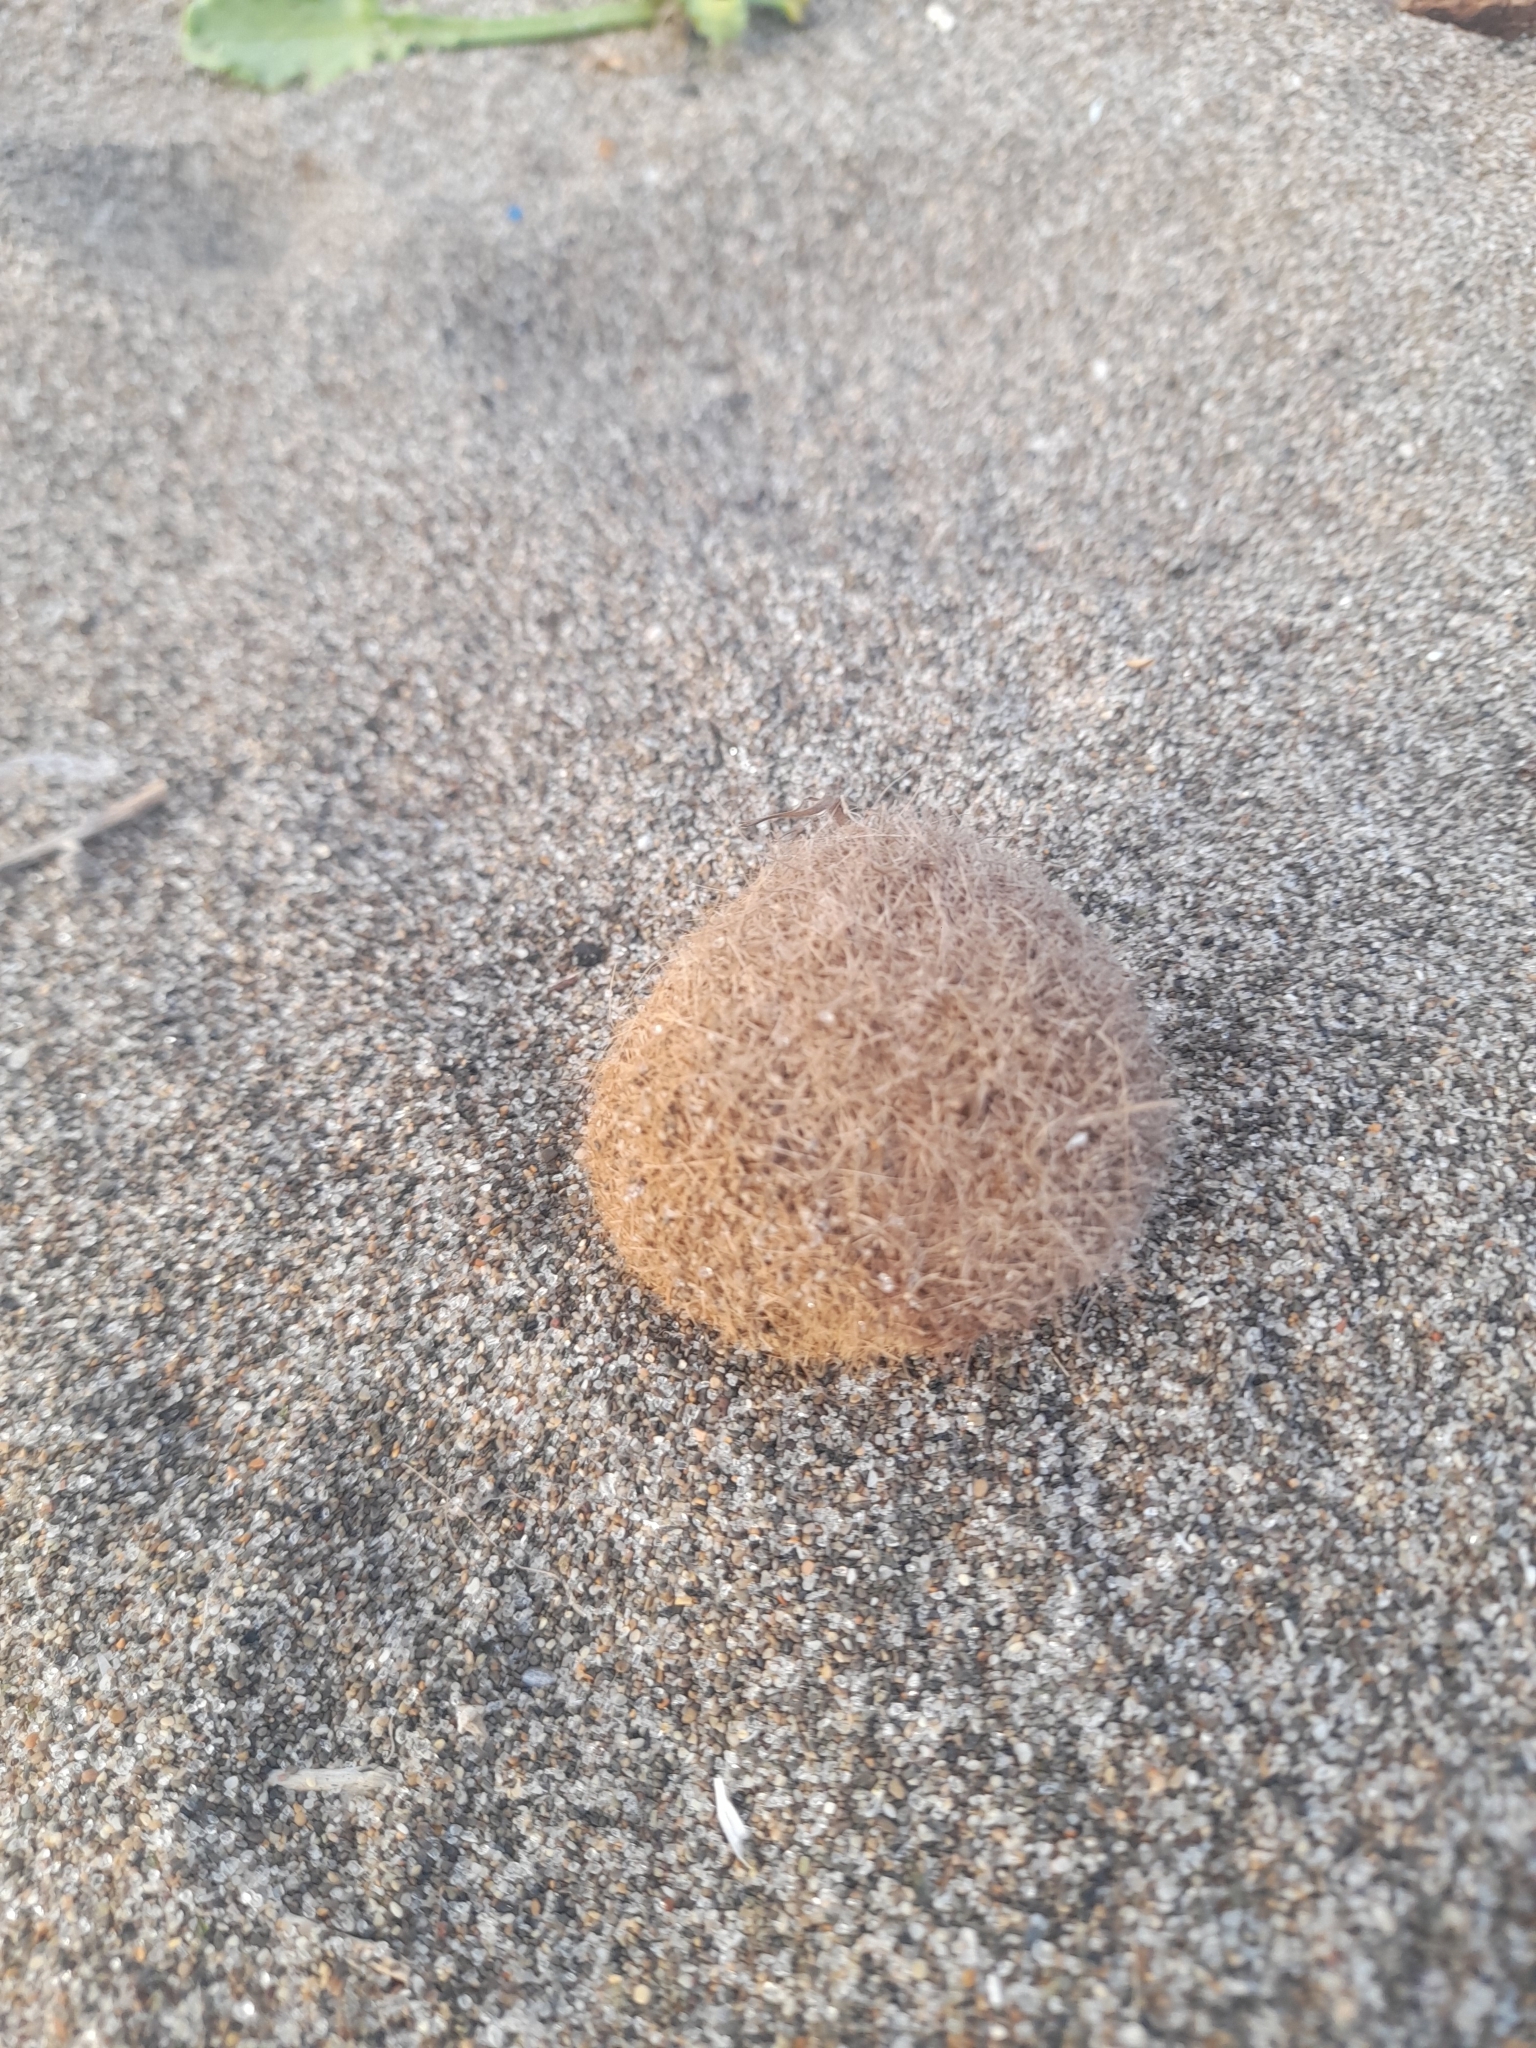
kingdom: Plantae
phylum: Tracheophyta
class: Liliopsida
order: Alismatales
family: Posidoniaceae
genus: Posidonia
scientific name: Posidonia oceanica
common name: Mediterranean tapeweed
